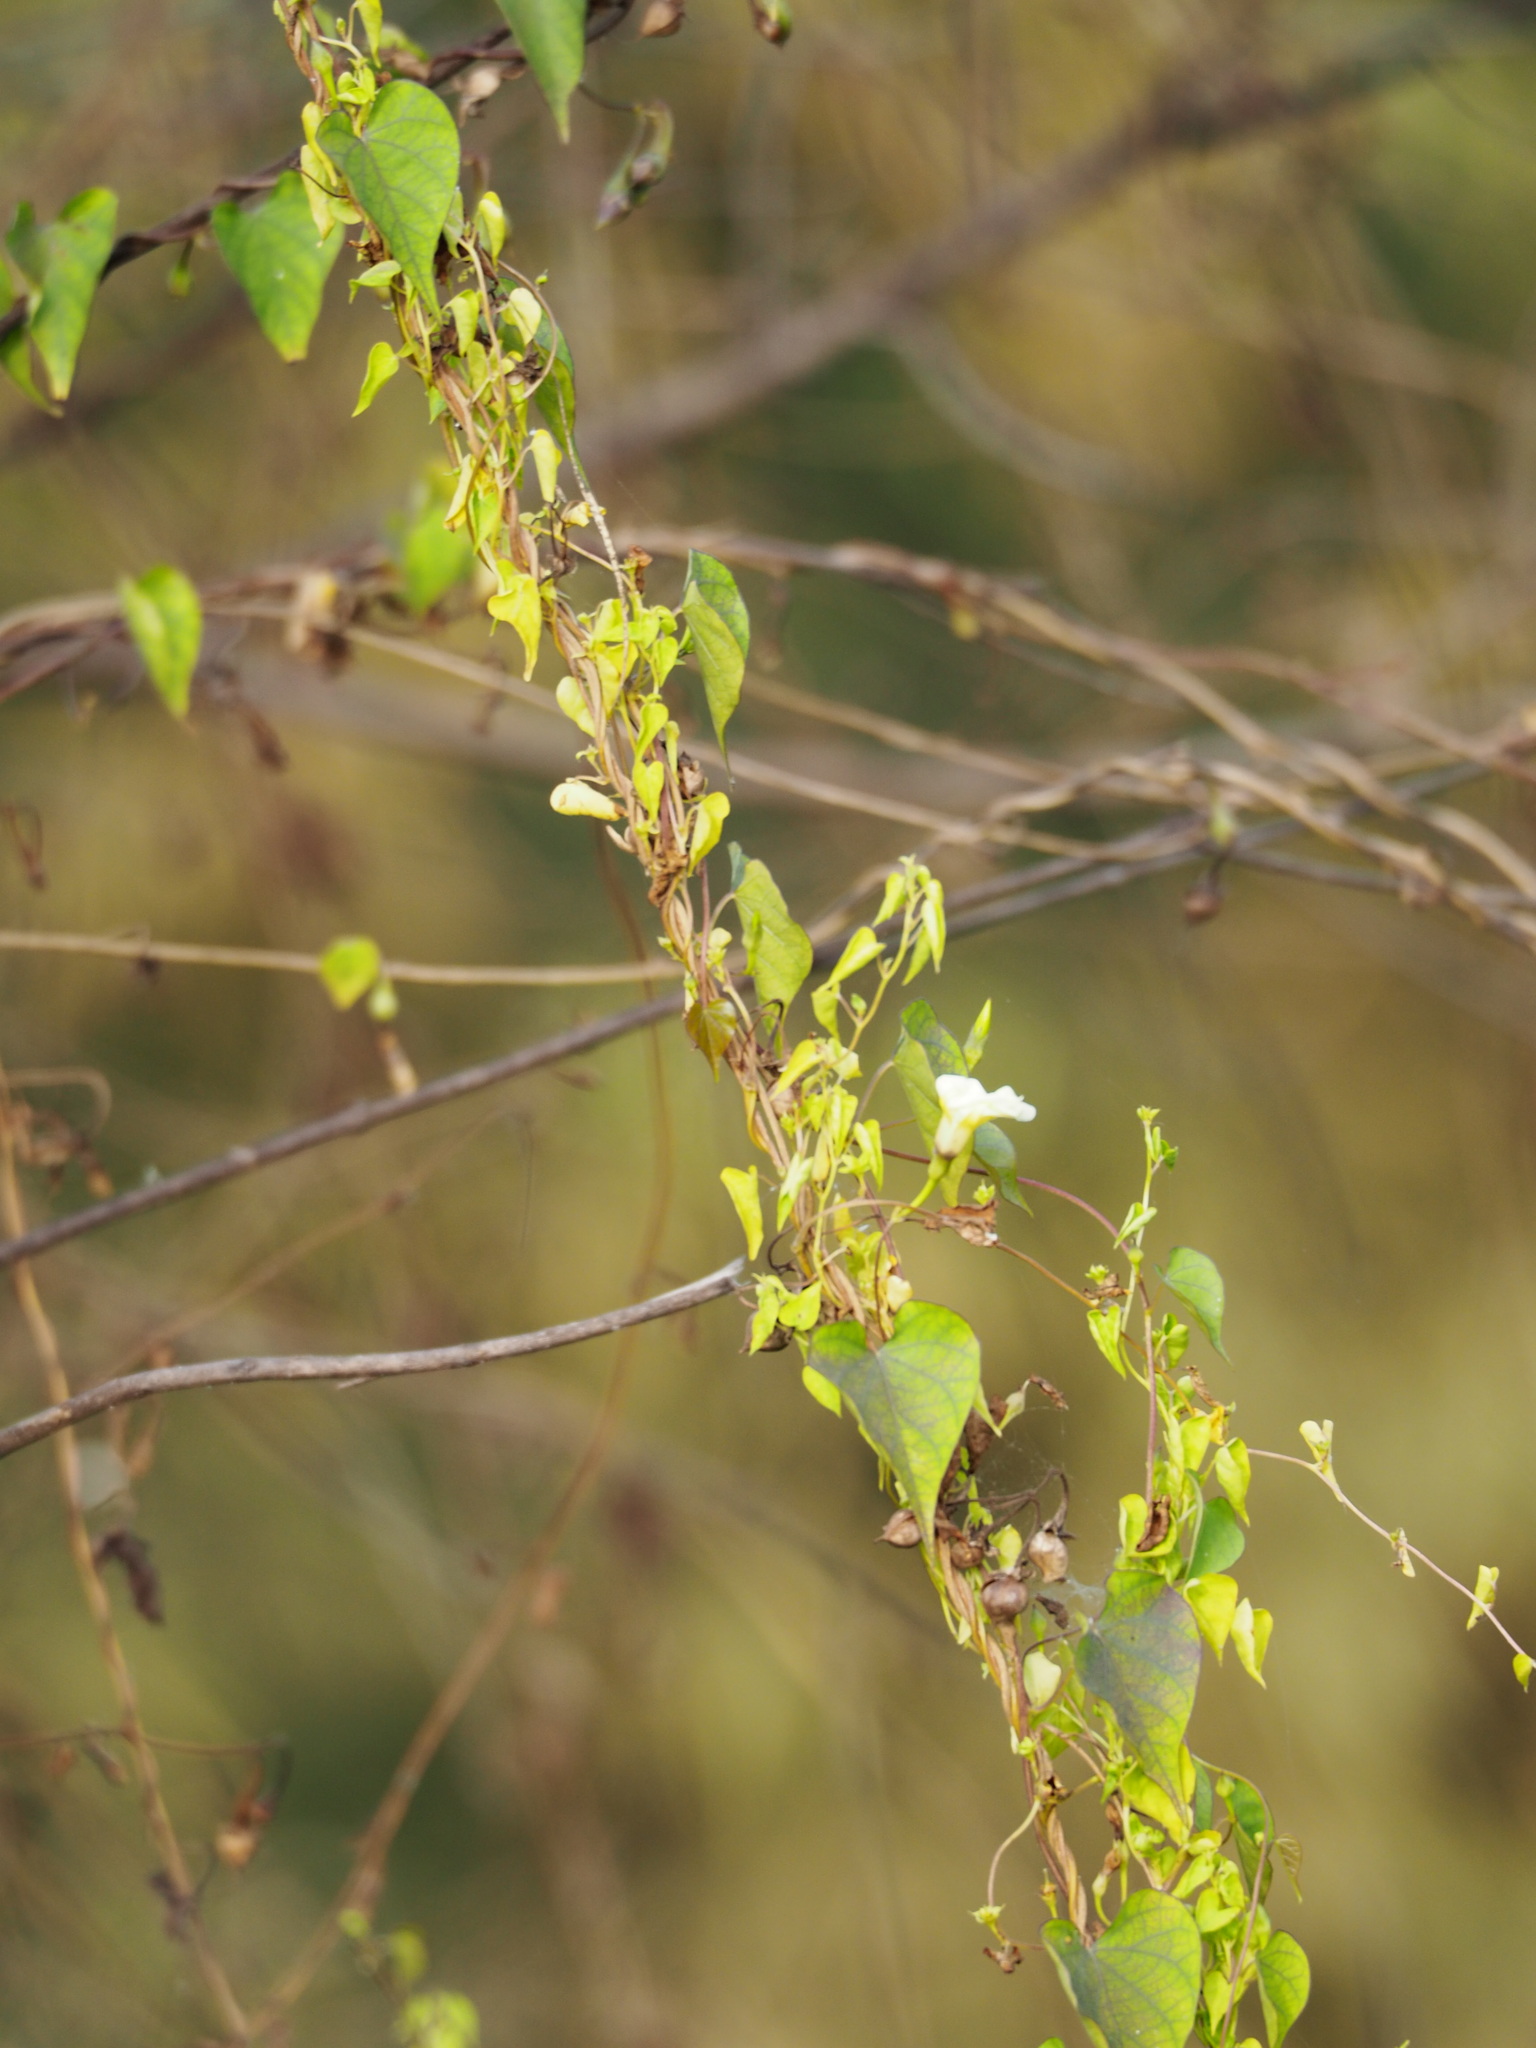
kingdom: Plantae
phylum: Tracheophyta
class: Magnoliopsida
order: Solanales
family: Convolvulaceae
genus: Ipomoea
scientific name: Ipomoea obscura
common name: Obscure morning-glory
